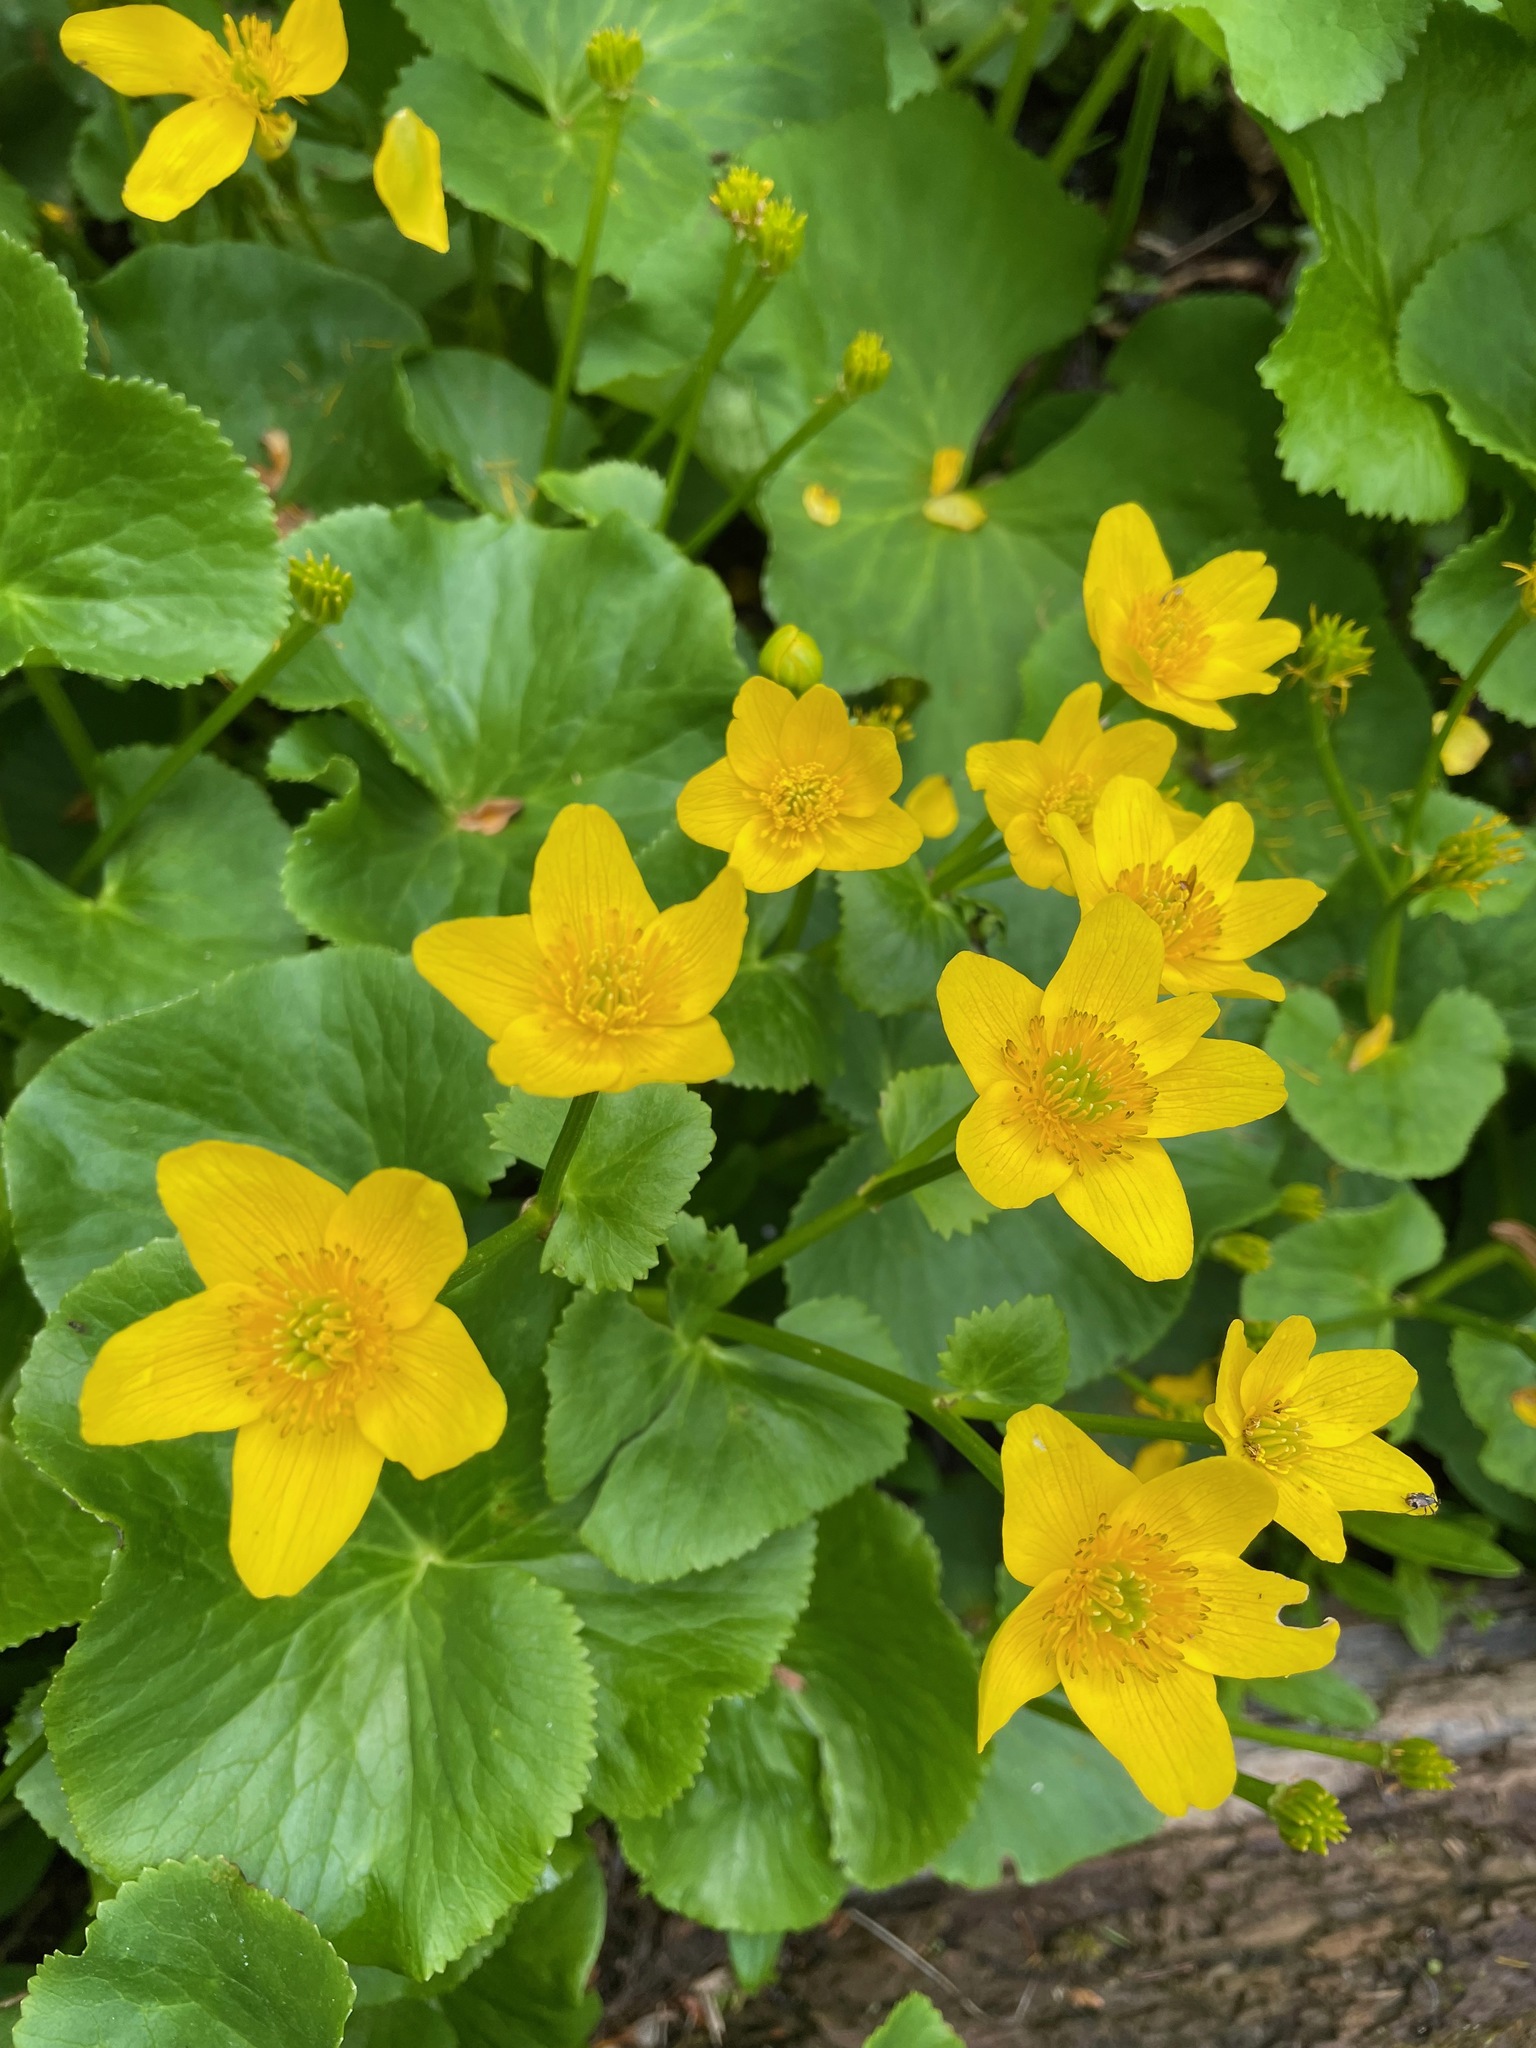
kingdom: Plantae
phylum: Tracheophyta
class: Magnoliopsida
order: Ranunculales
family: Ranunculaceae
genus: Caltha
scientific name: Caltha palustris
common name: Marsh marigold
